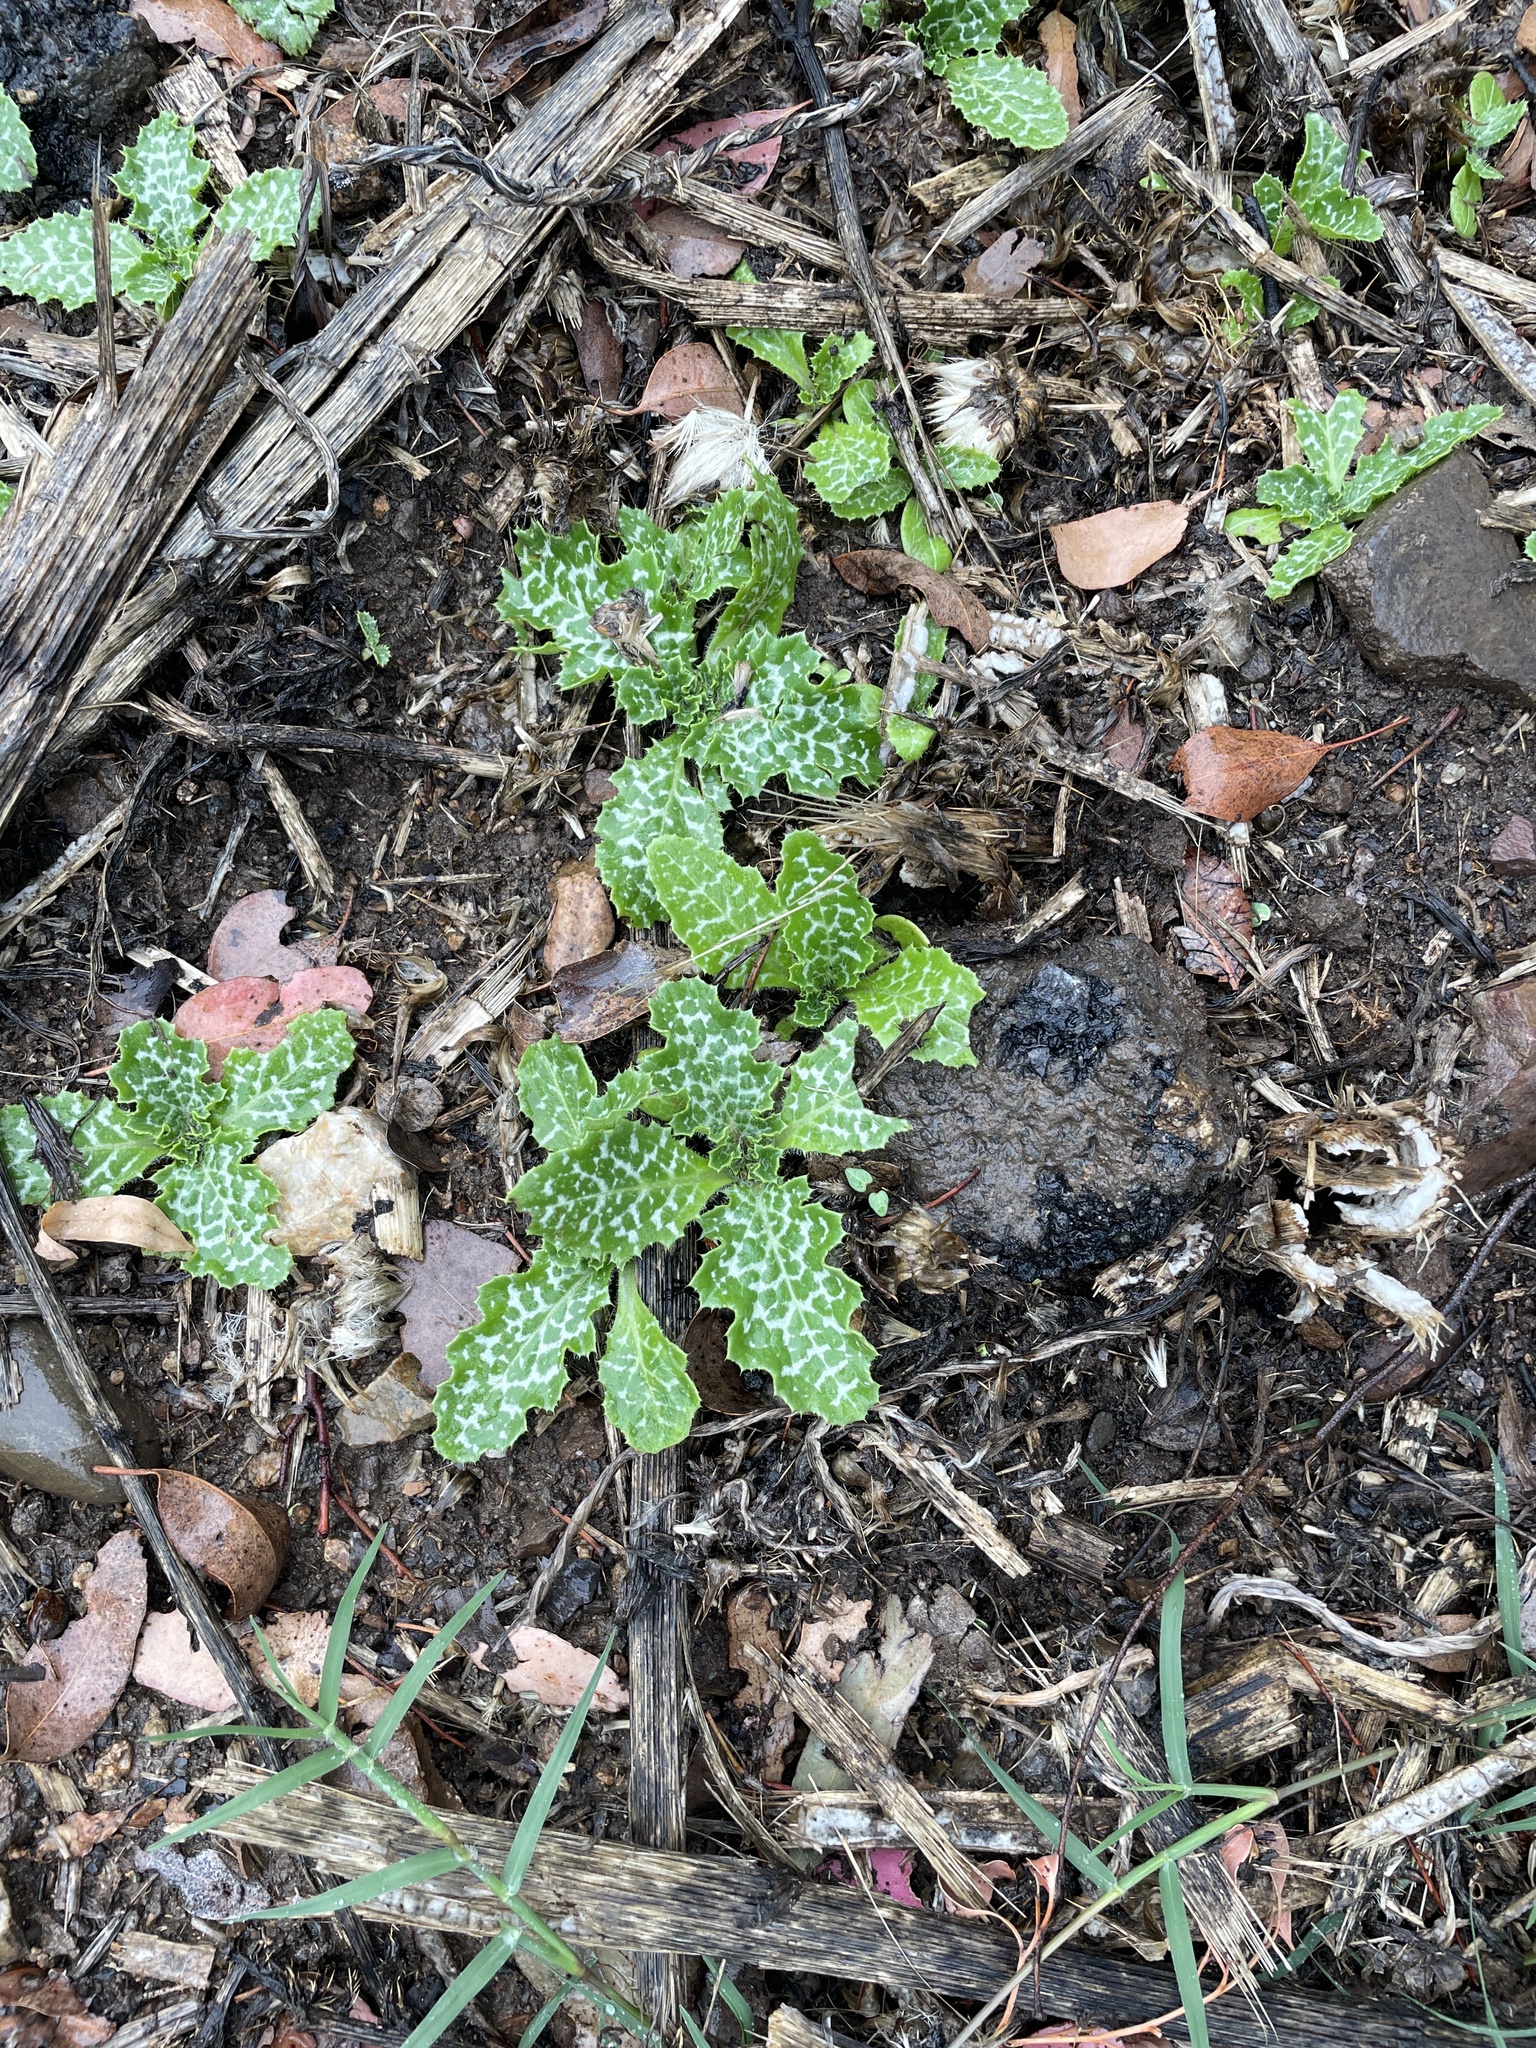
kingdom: Plantae
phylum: Tracheophyta
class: Magnoliopsida
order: Asterales
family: Asteraceae
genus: Silybum
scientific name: Silybum marianum
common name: Milk thistle
